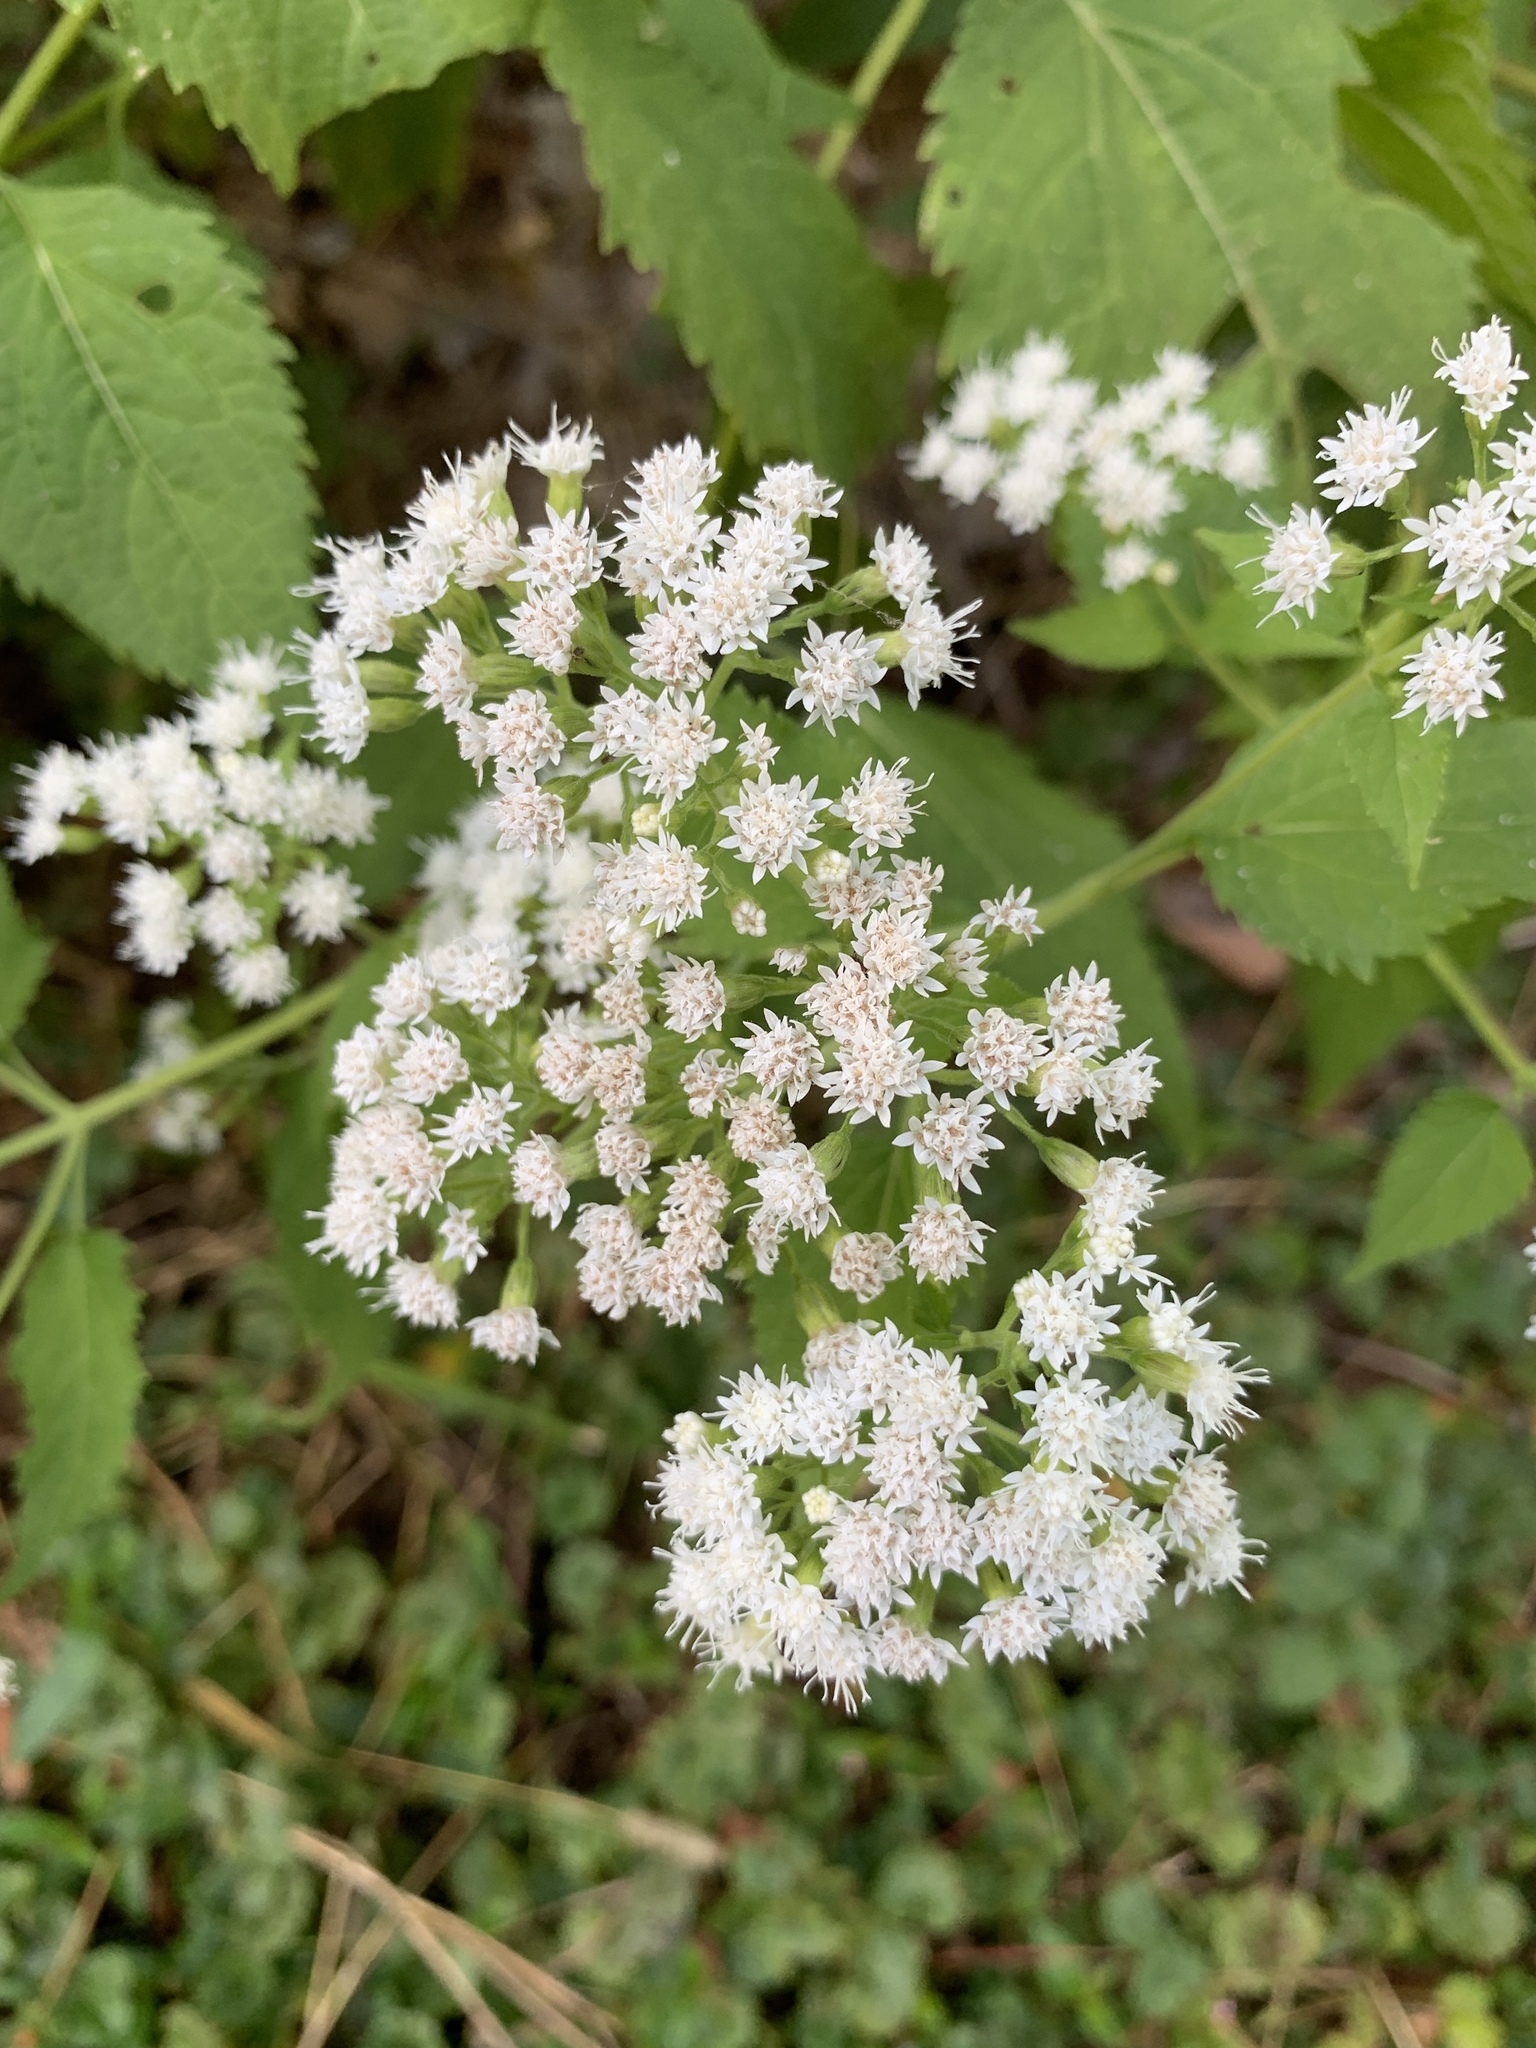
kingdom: Plantae
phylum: Tracheophyta
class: Magnoliopsida
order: Asterales
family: Asteraceae
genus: Ageratina
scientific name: Ageratina altissima
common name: White snakeroot
